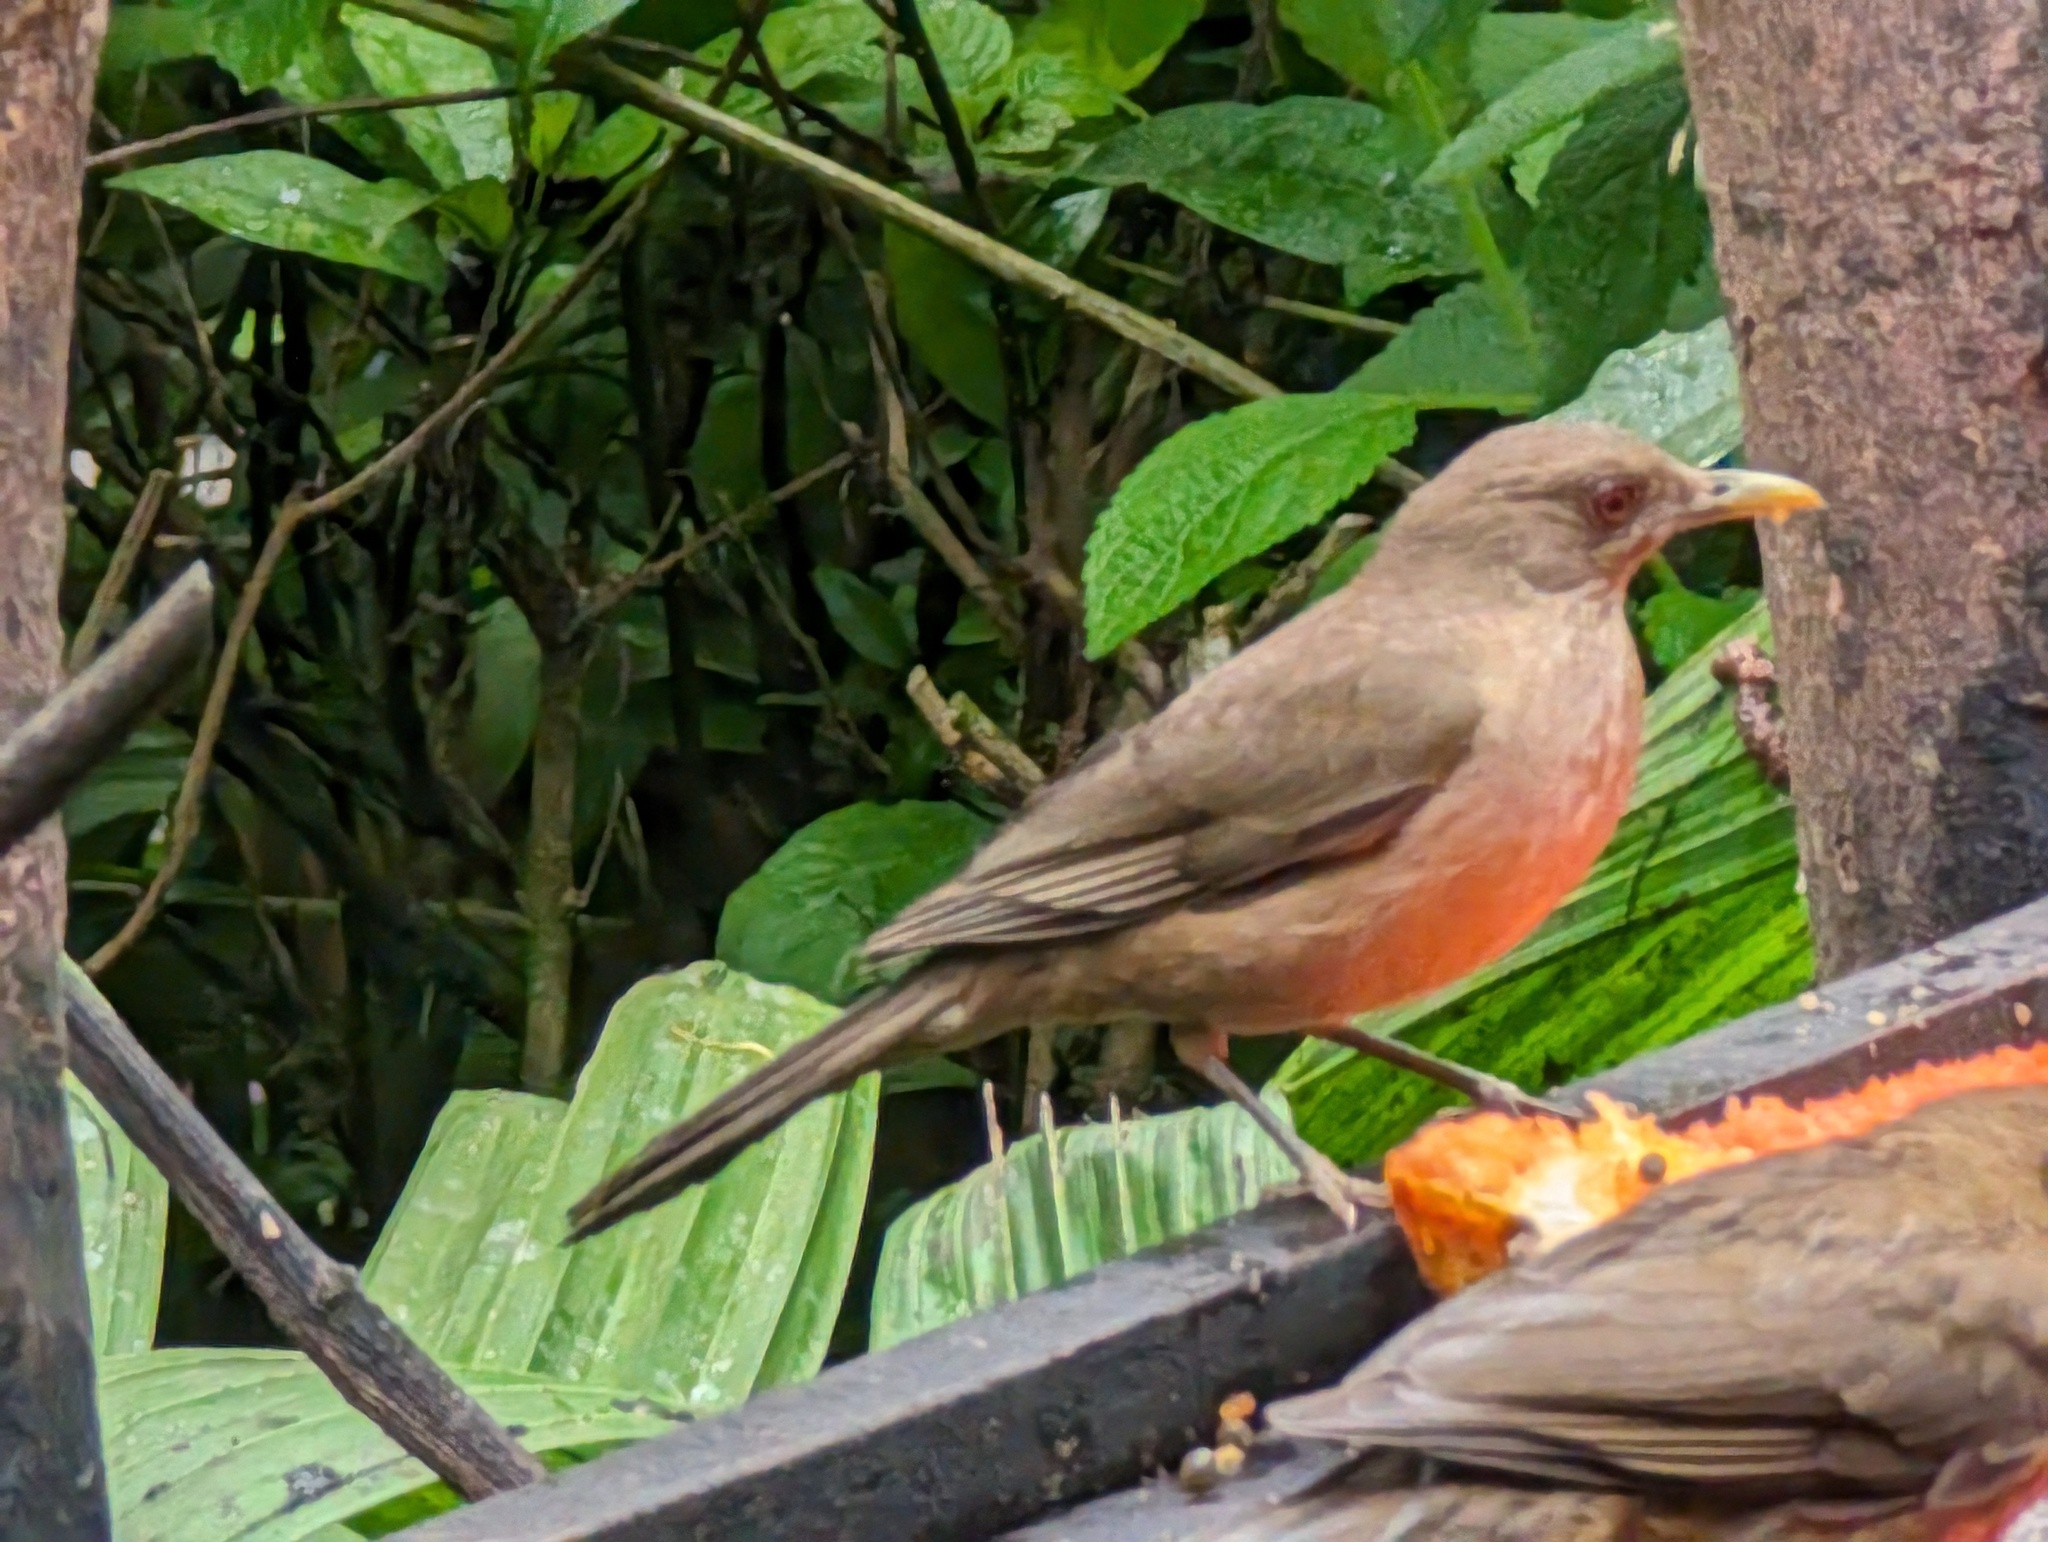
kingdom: Animalia
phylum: Chordata
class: Aves
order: Passeriformes
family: Turdidae
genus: Turdus
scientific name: Turdus grayi
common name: Clay-colored thrush
